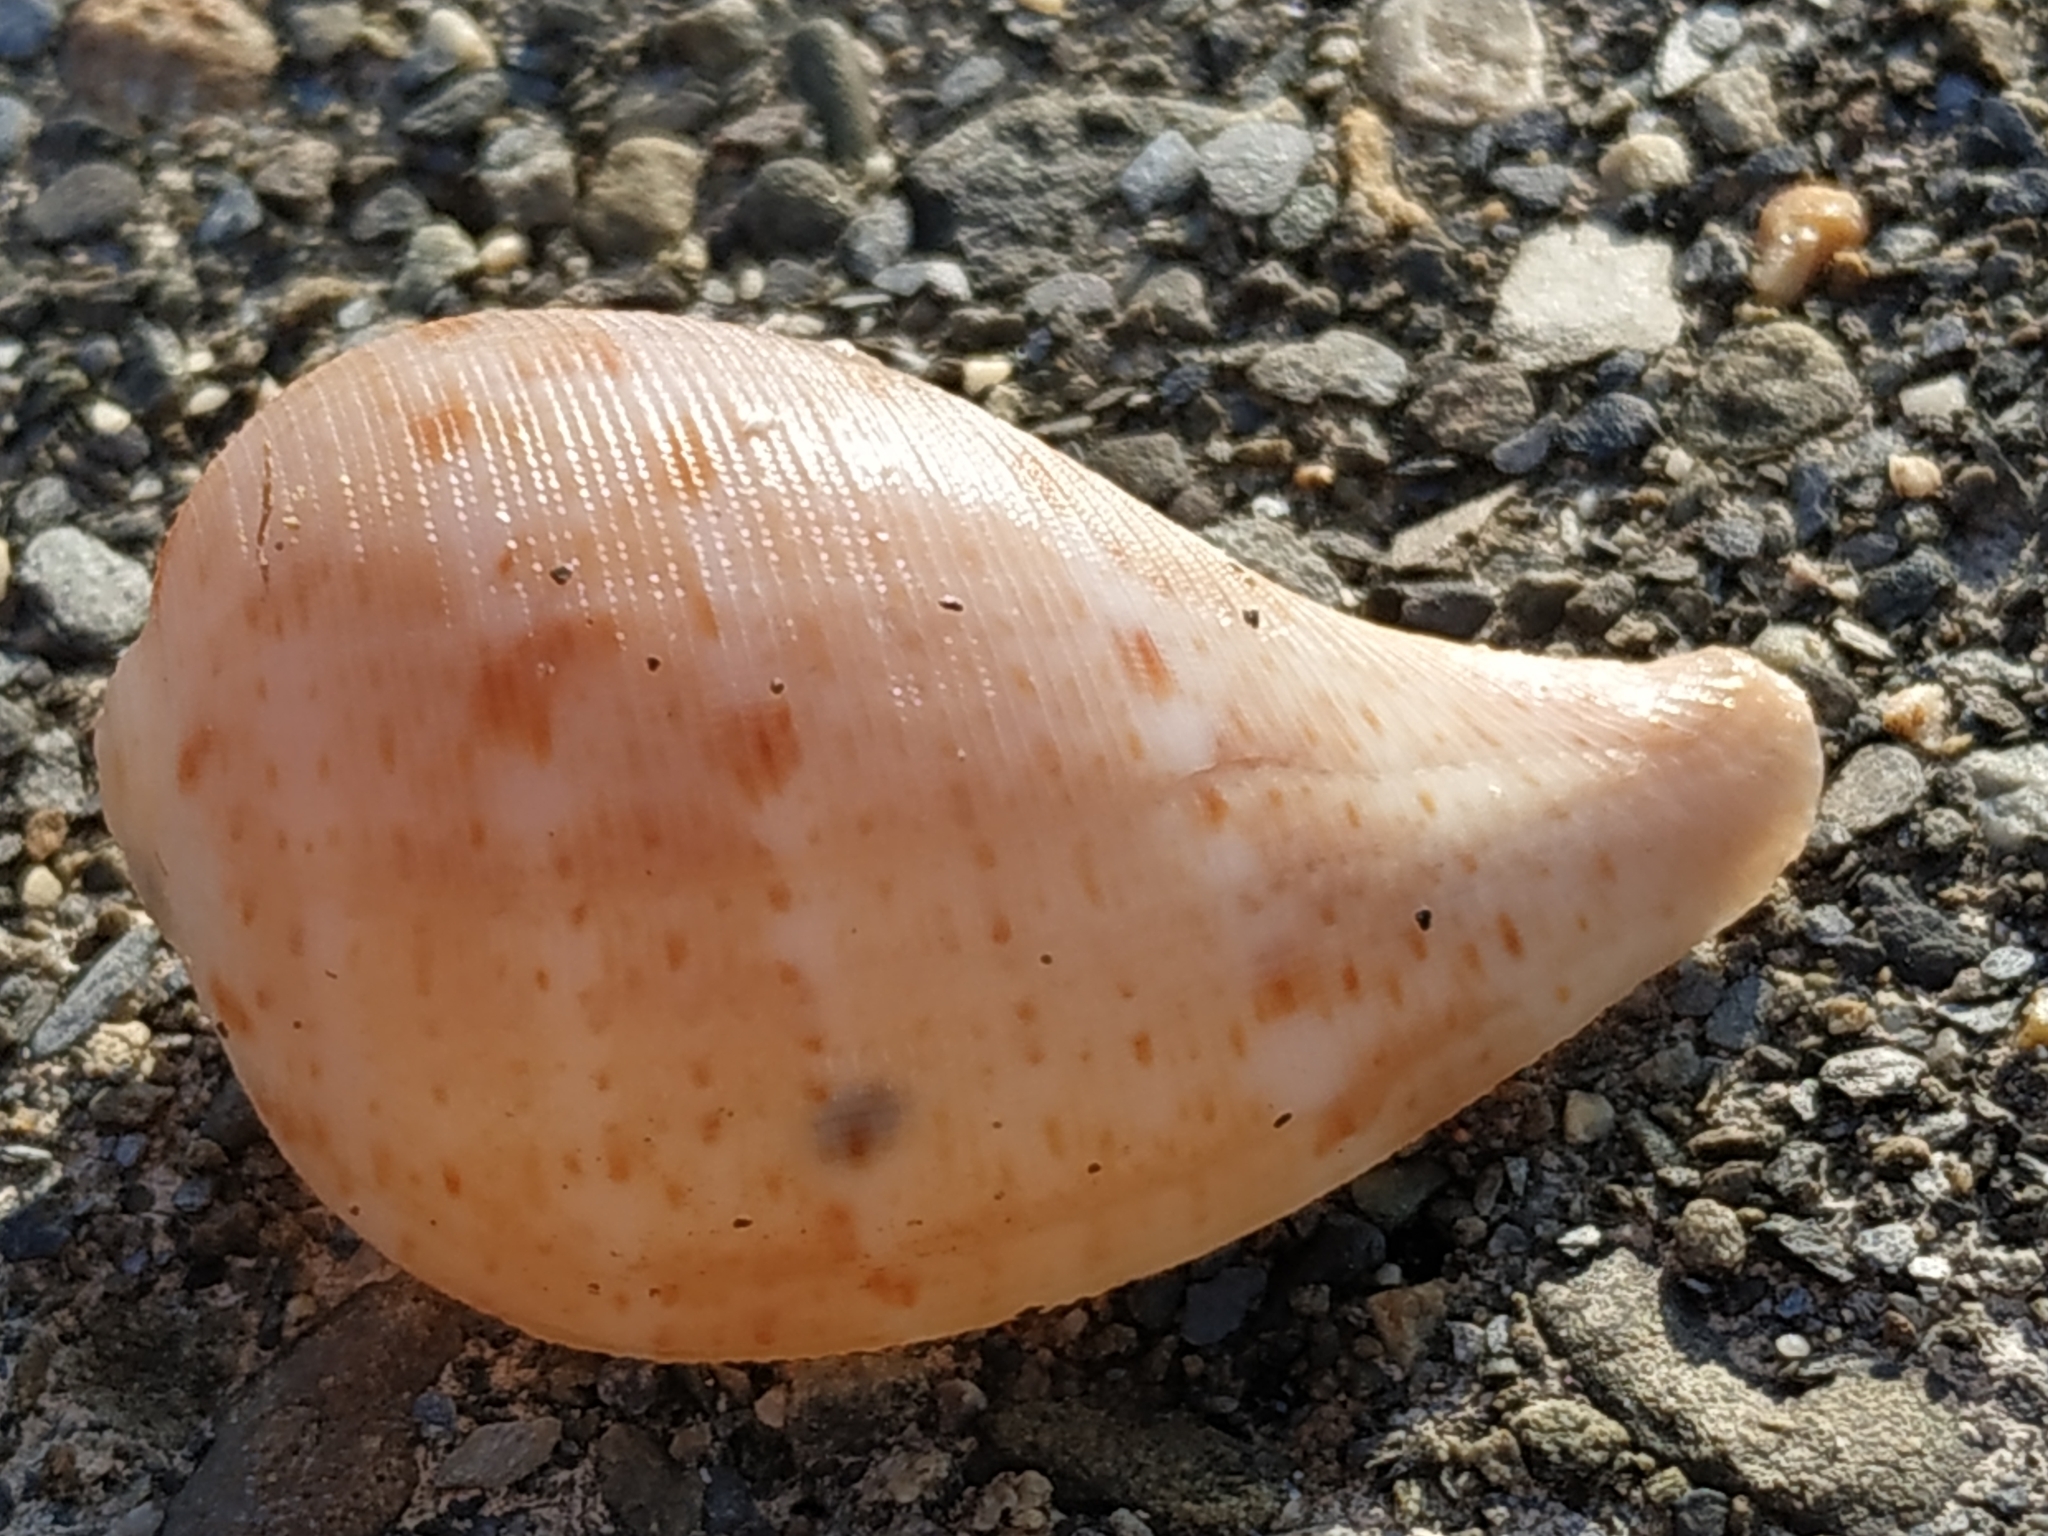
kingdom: Animalia
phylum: Mollusca
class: Gastropoda
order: Littorinimorpha
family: Ficidae
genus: Ficus
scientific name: Ficus ficus
